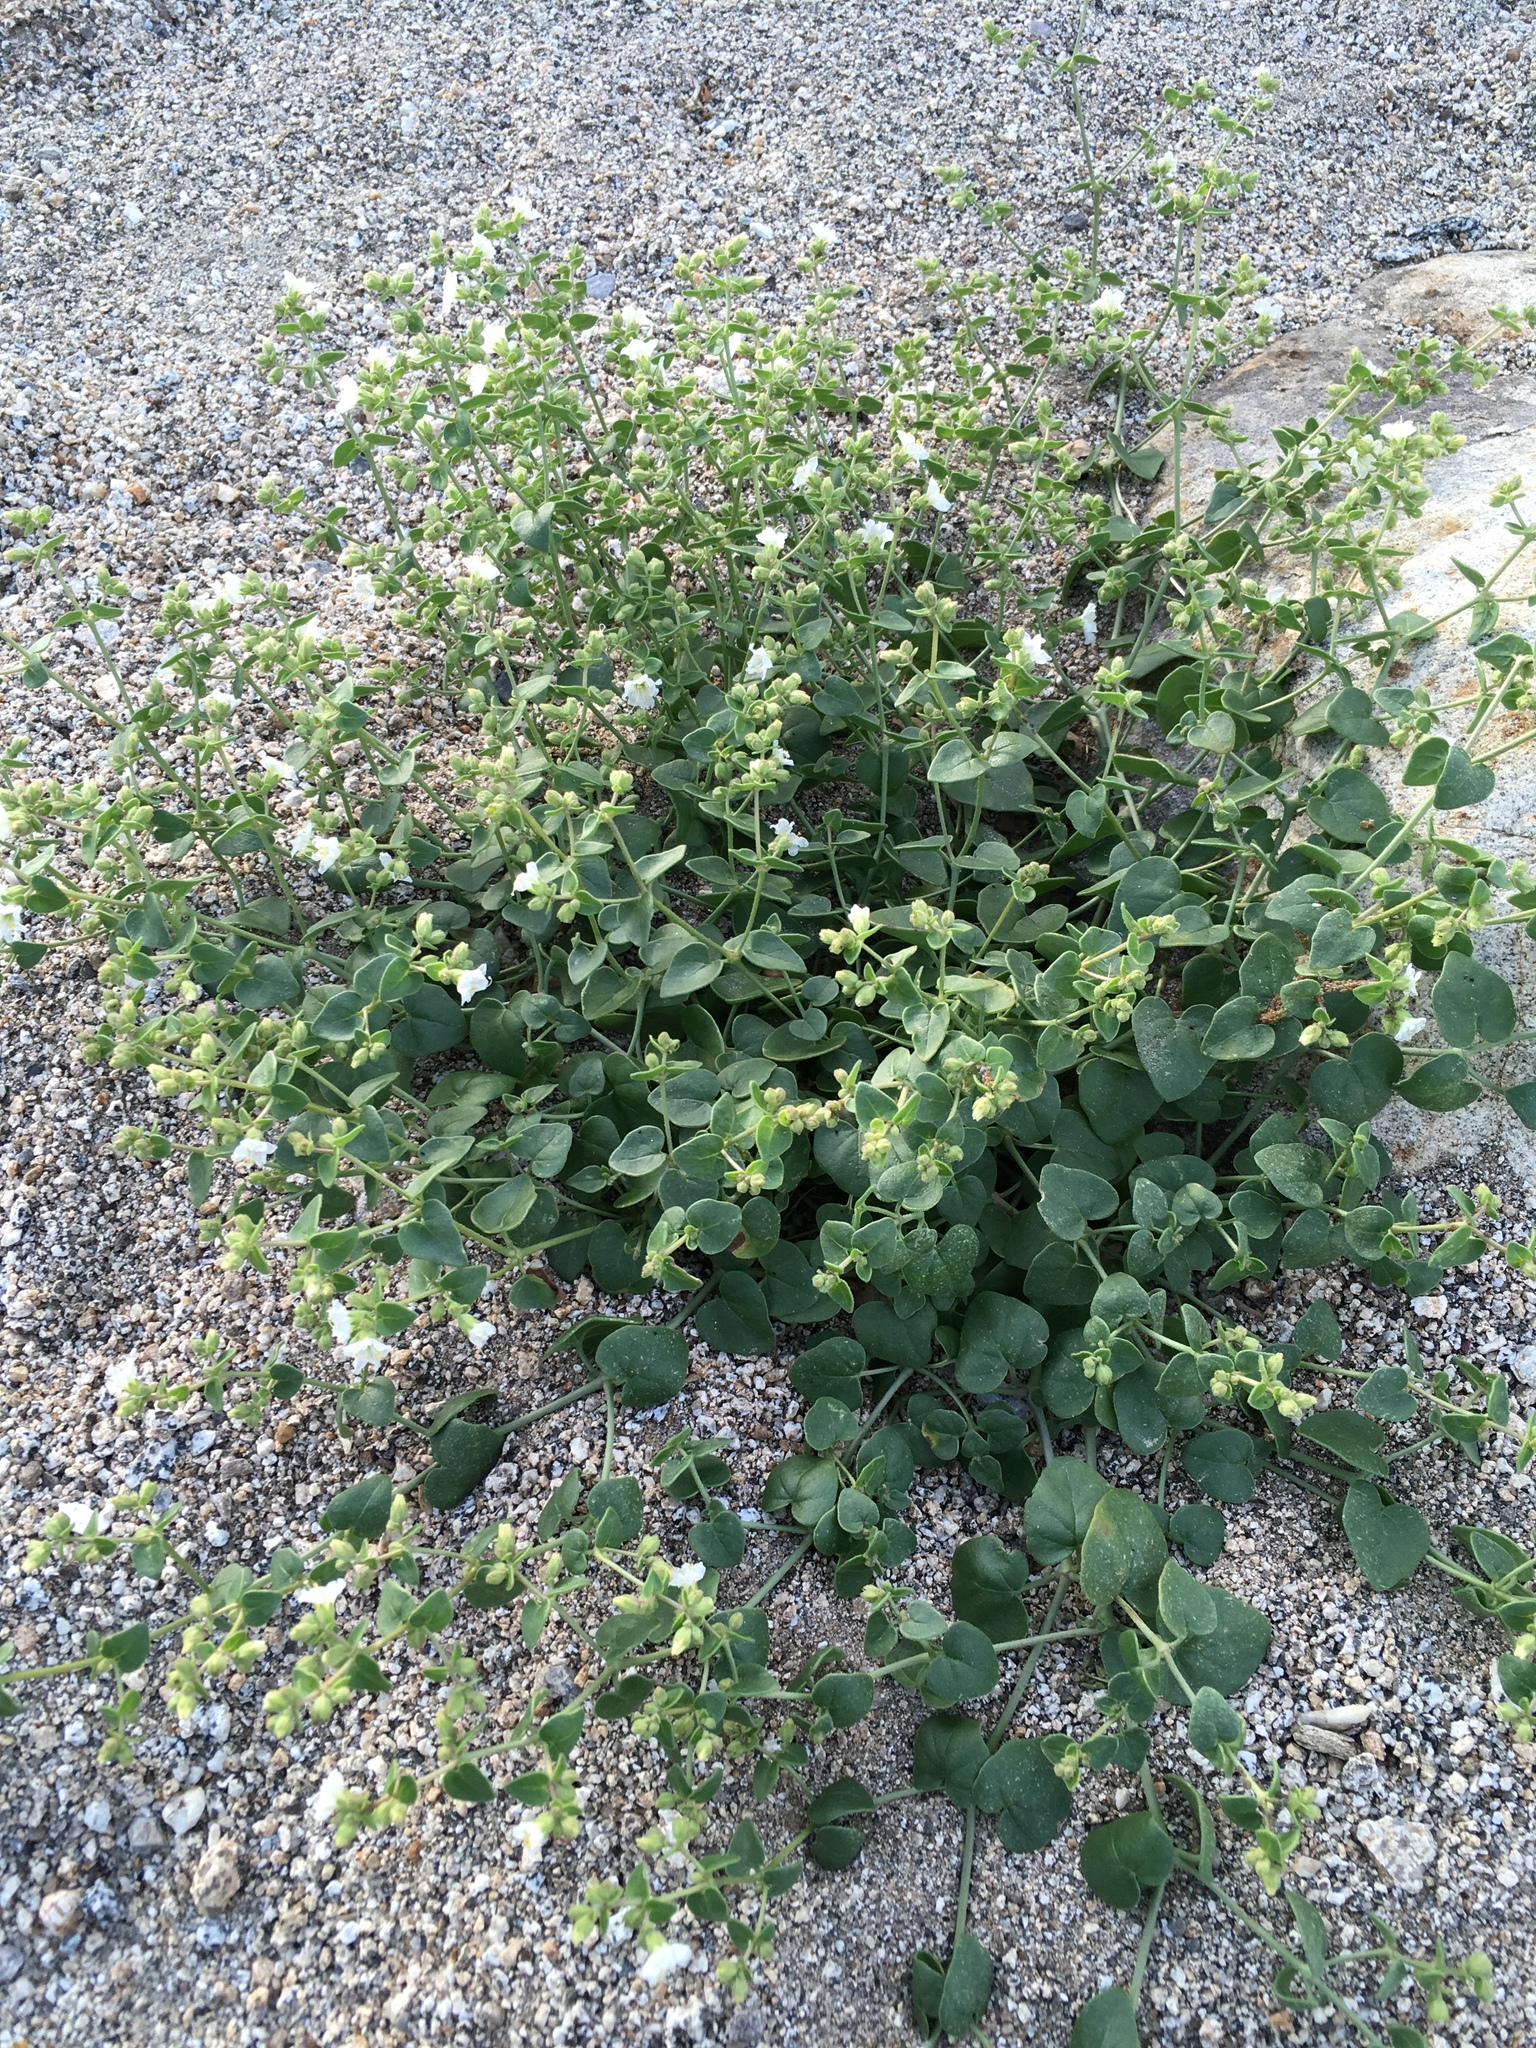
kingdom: Plantae
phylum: Tracheophyta
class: Magnoliopsida
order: Caryophyllales
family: Nyctaginaceae
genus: Mirabilis
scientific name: Mirabilis laevis
